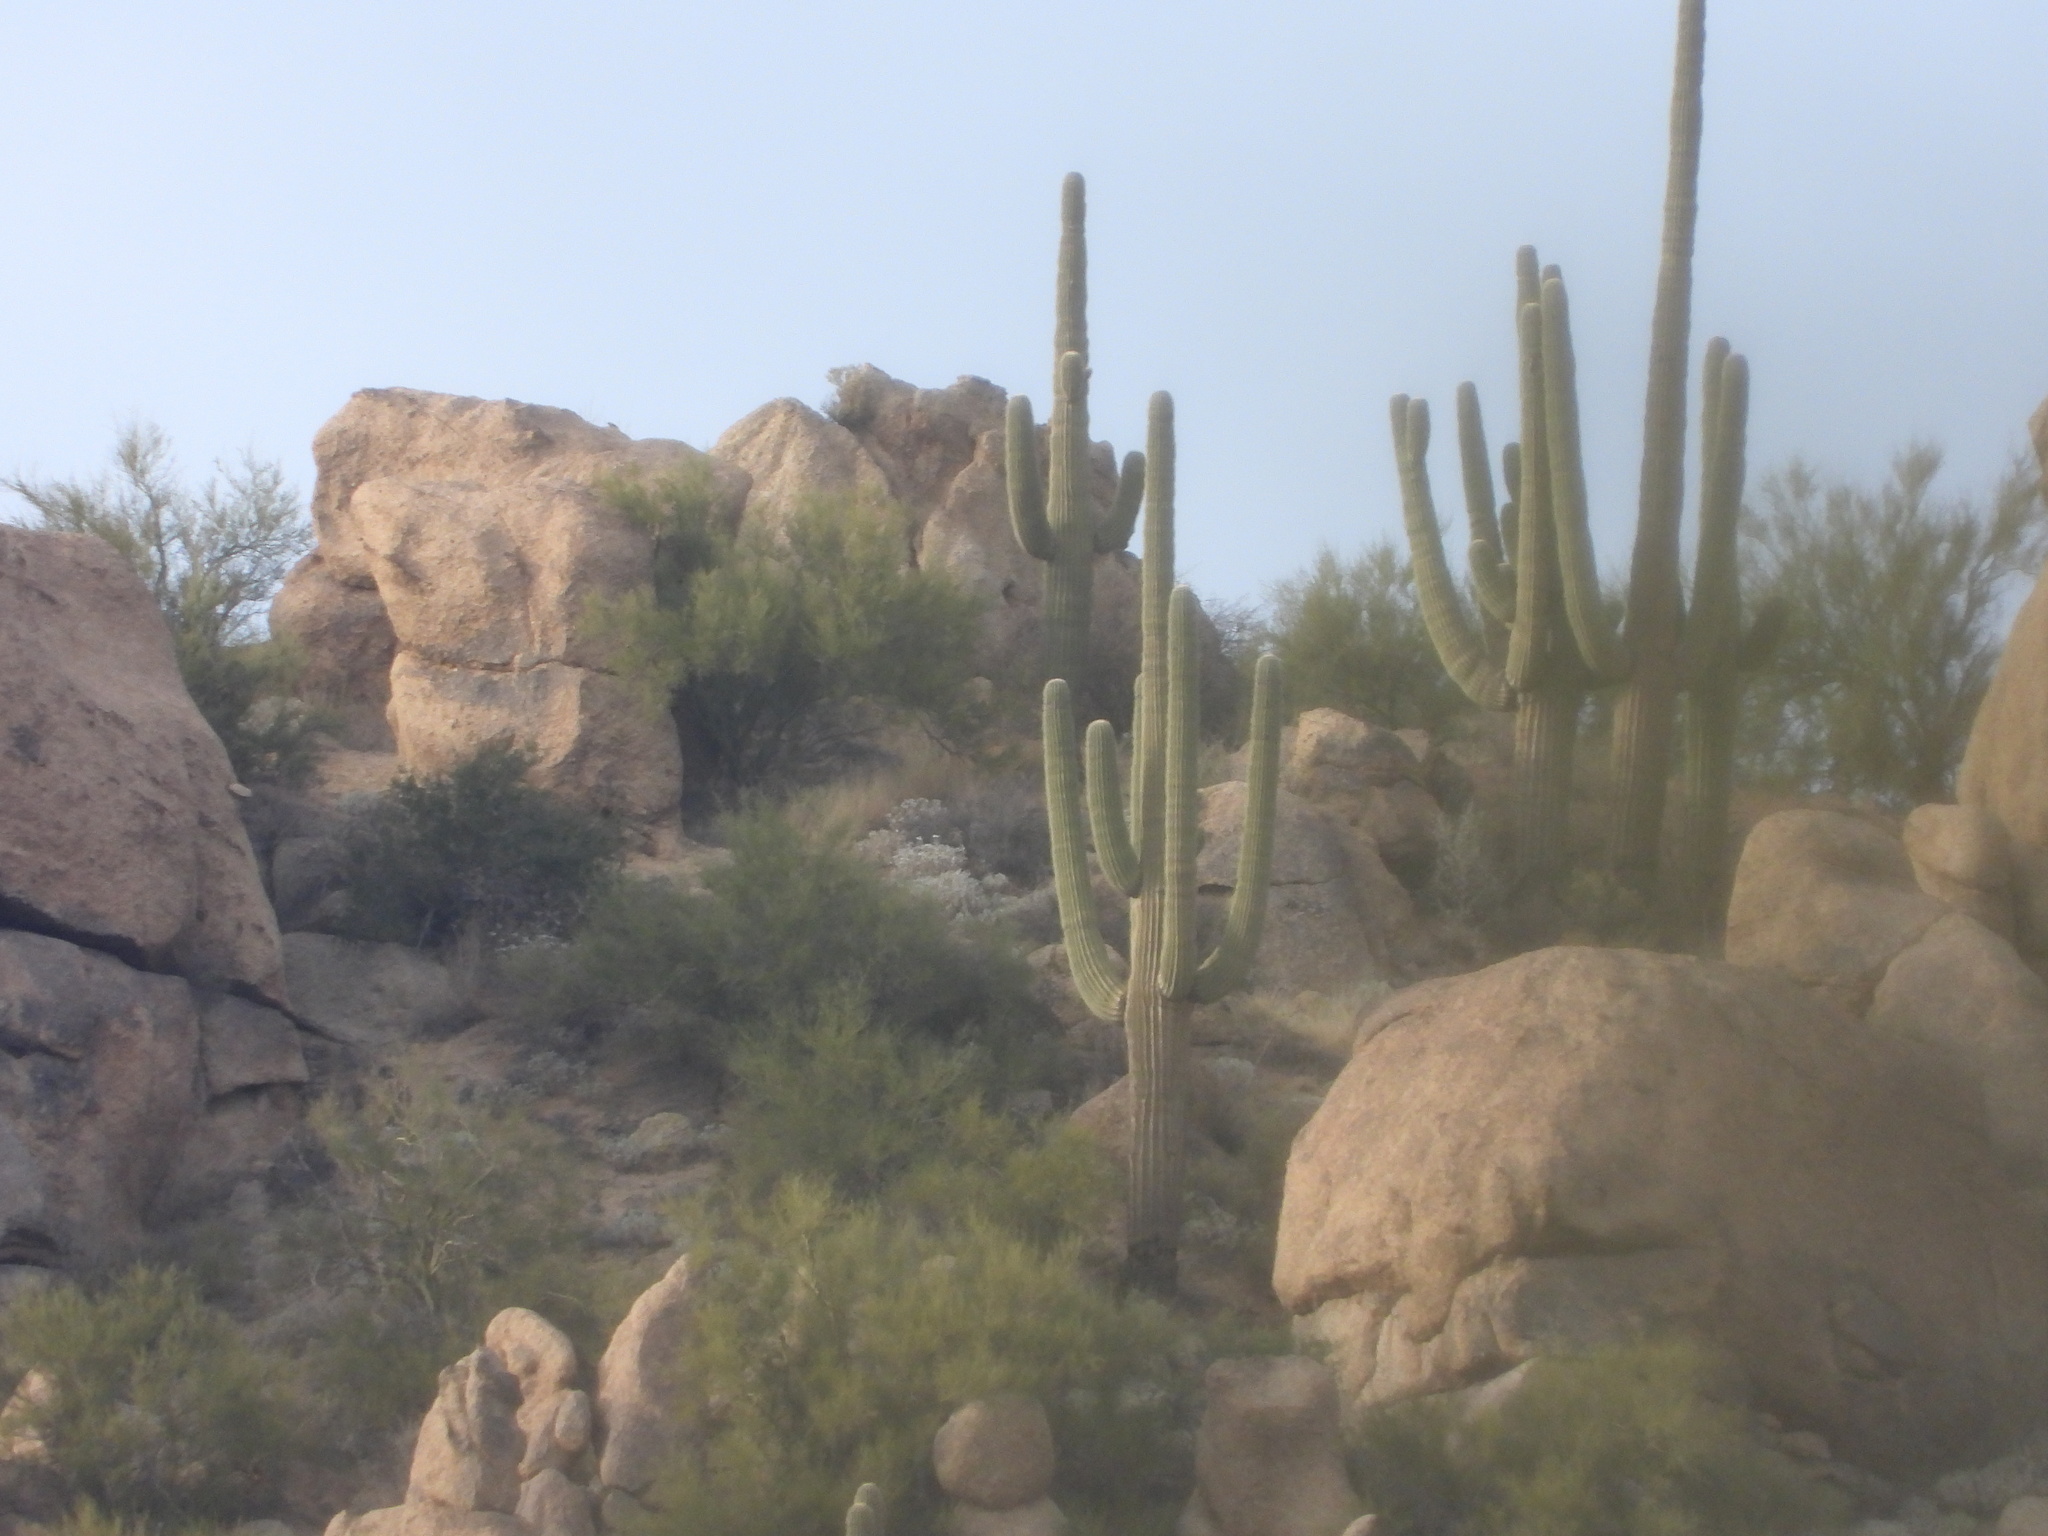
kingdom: Plantae
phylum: Tracheophyta
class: Magnoliopsida
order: Caryophyllales
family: Cactaceae
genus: Carnegiea
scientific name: Carnegiea gigantea
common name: Saguaro
